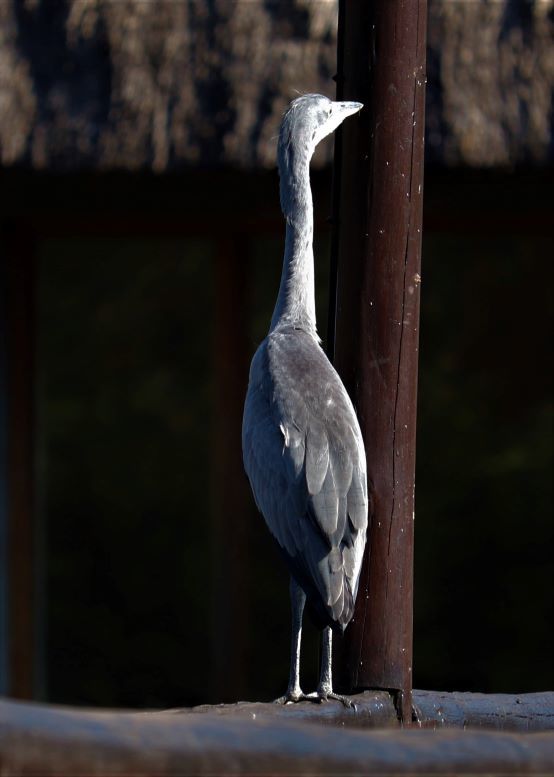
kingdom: Animalia
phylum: Chordata
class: Aves
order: Pelecaniformes
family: Ardeidae
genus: Ardea
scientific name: Ardea melanocephala
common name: Black-headed heron
